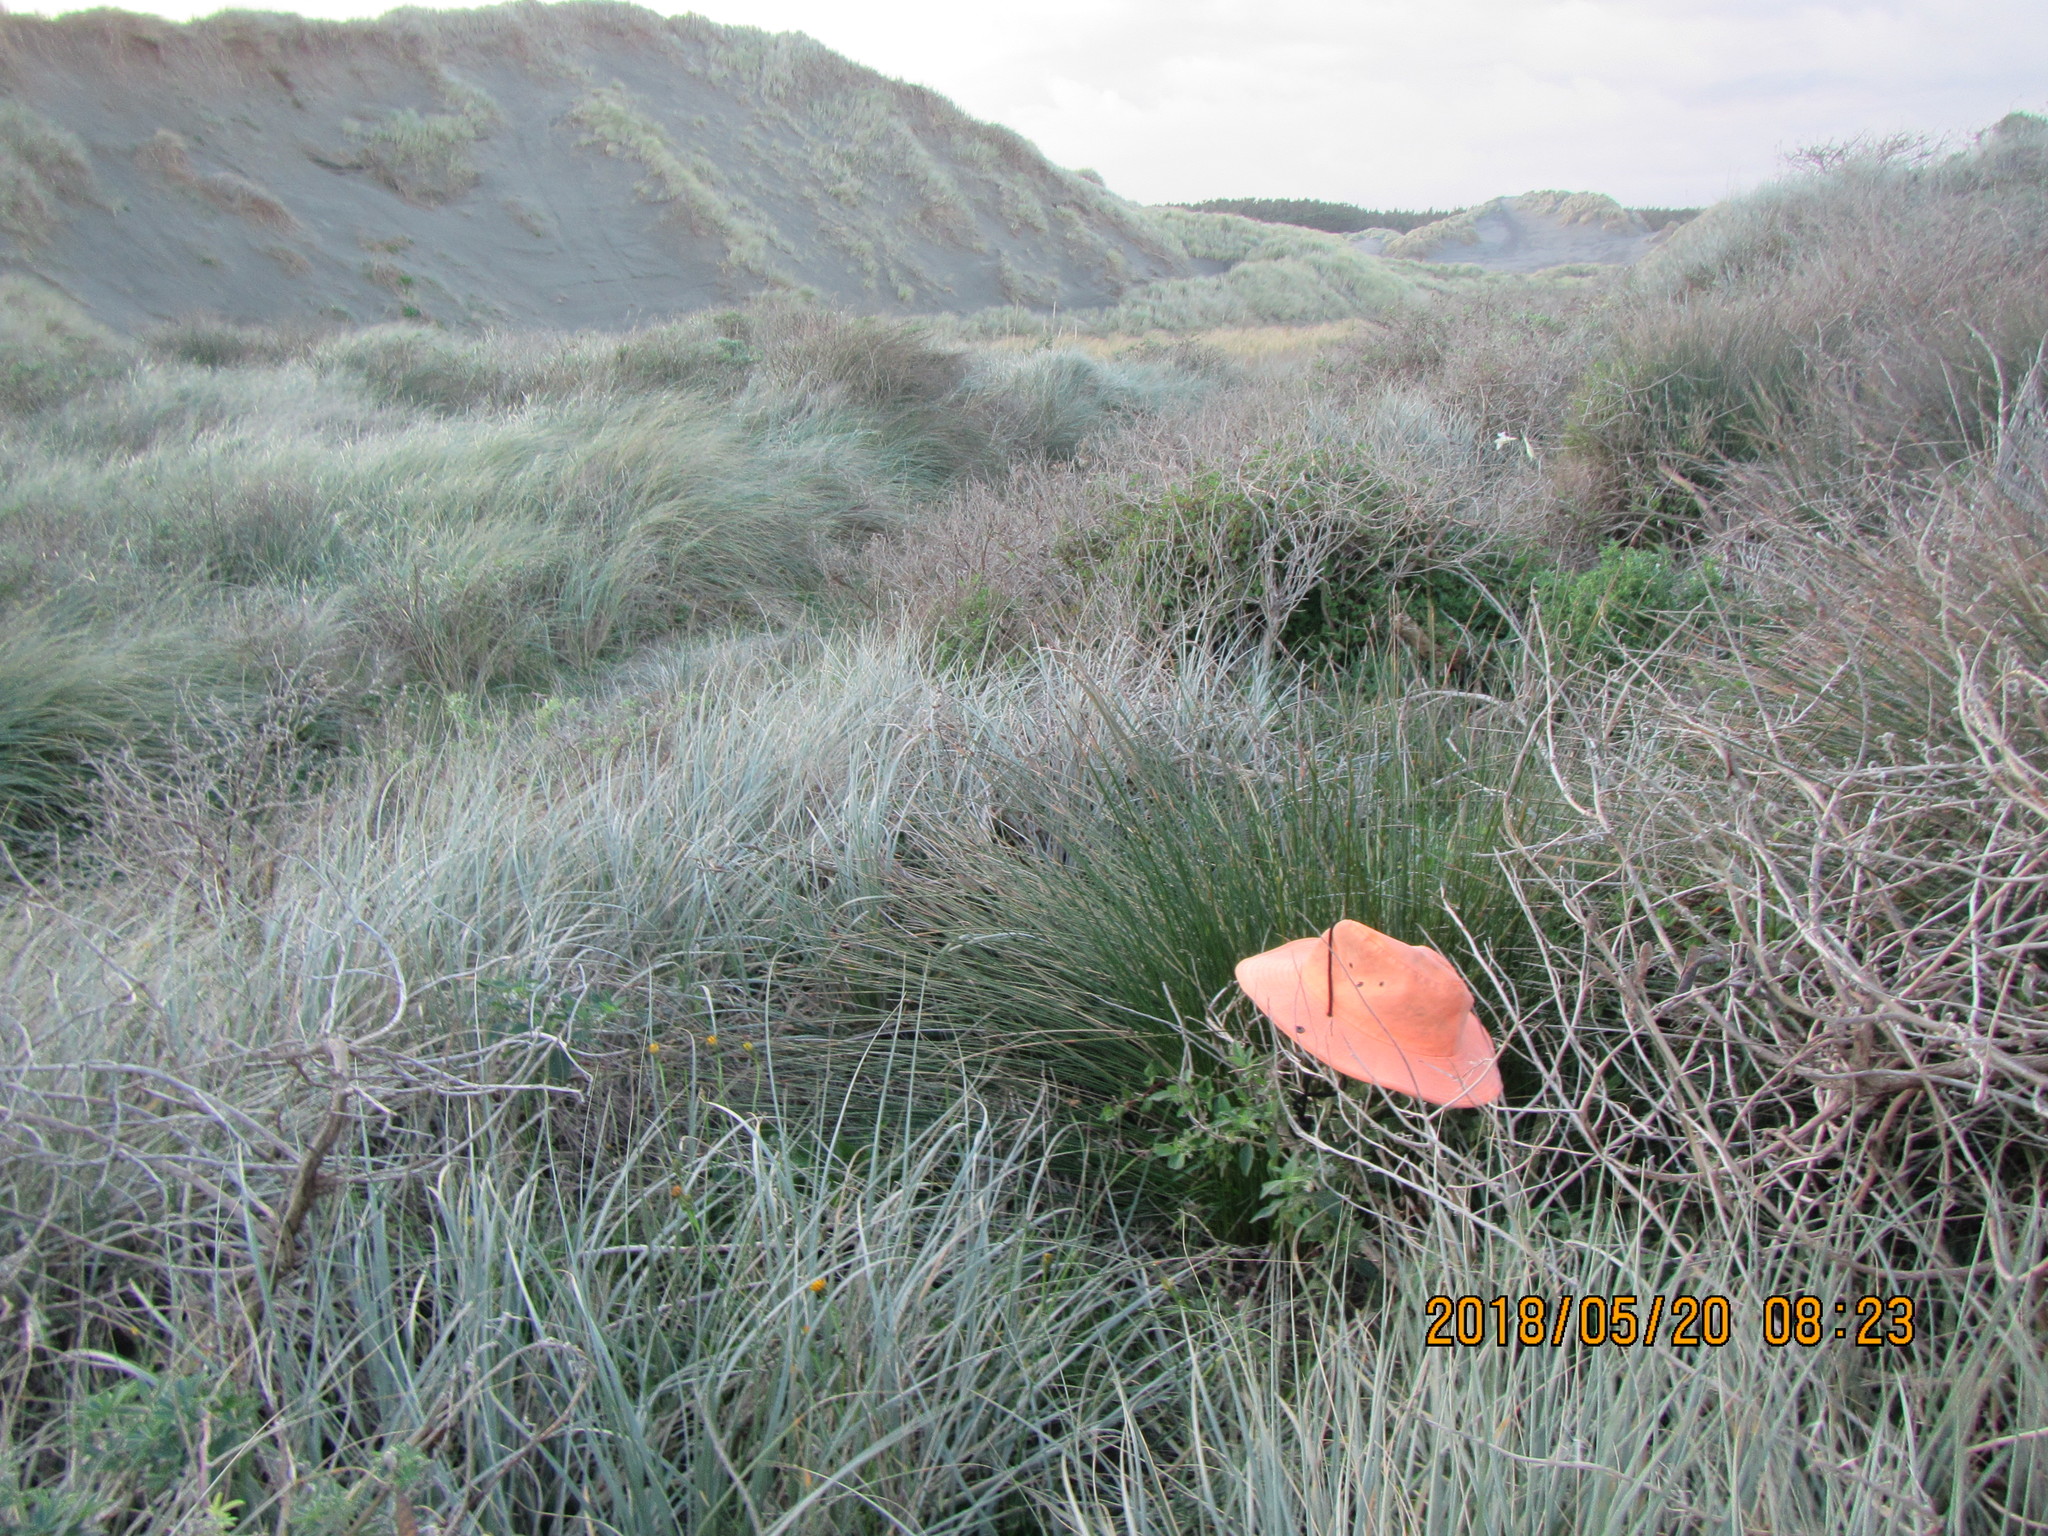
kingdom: Plantae
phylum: Tracheophyta
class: Magnoliopsida
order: Solanales
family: Solanaceae
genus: Solanum
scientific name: Solanum chenopodioides
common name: Tall nightshade
